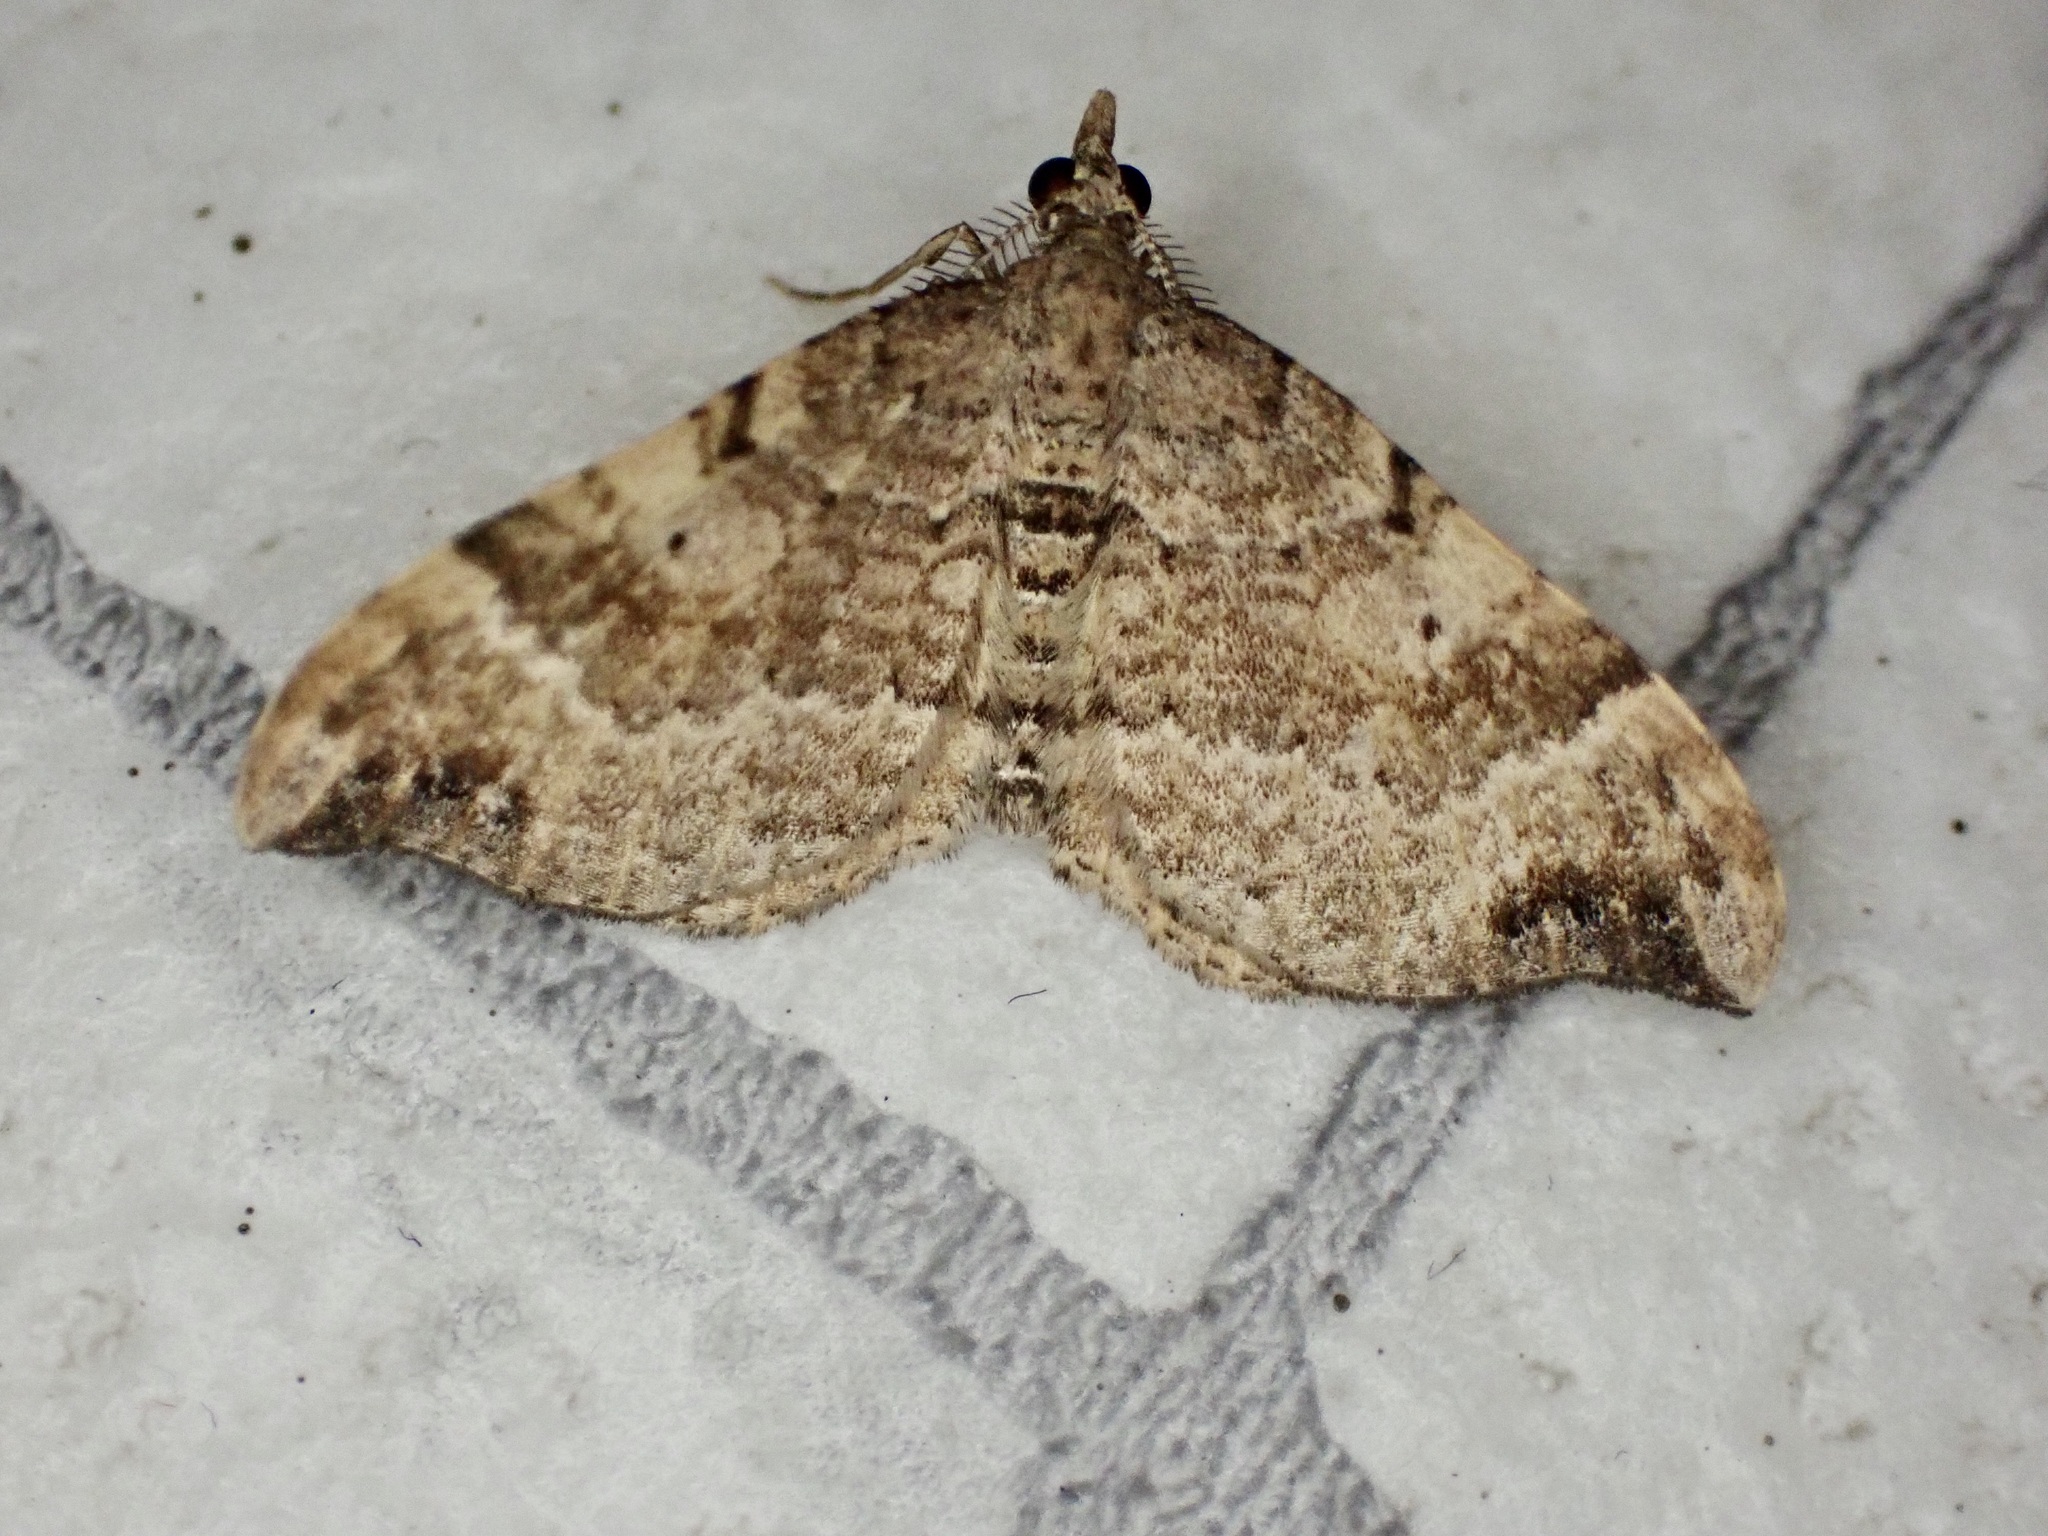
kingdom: Animalia
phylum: Arthropoda
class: Insecta
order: Lepidoptera
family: Geometridae
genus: Homodotis
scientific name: Homodotis megaspilata
